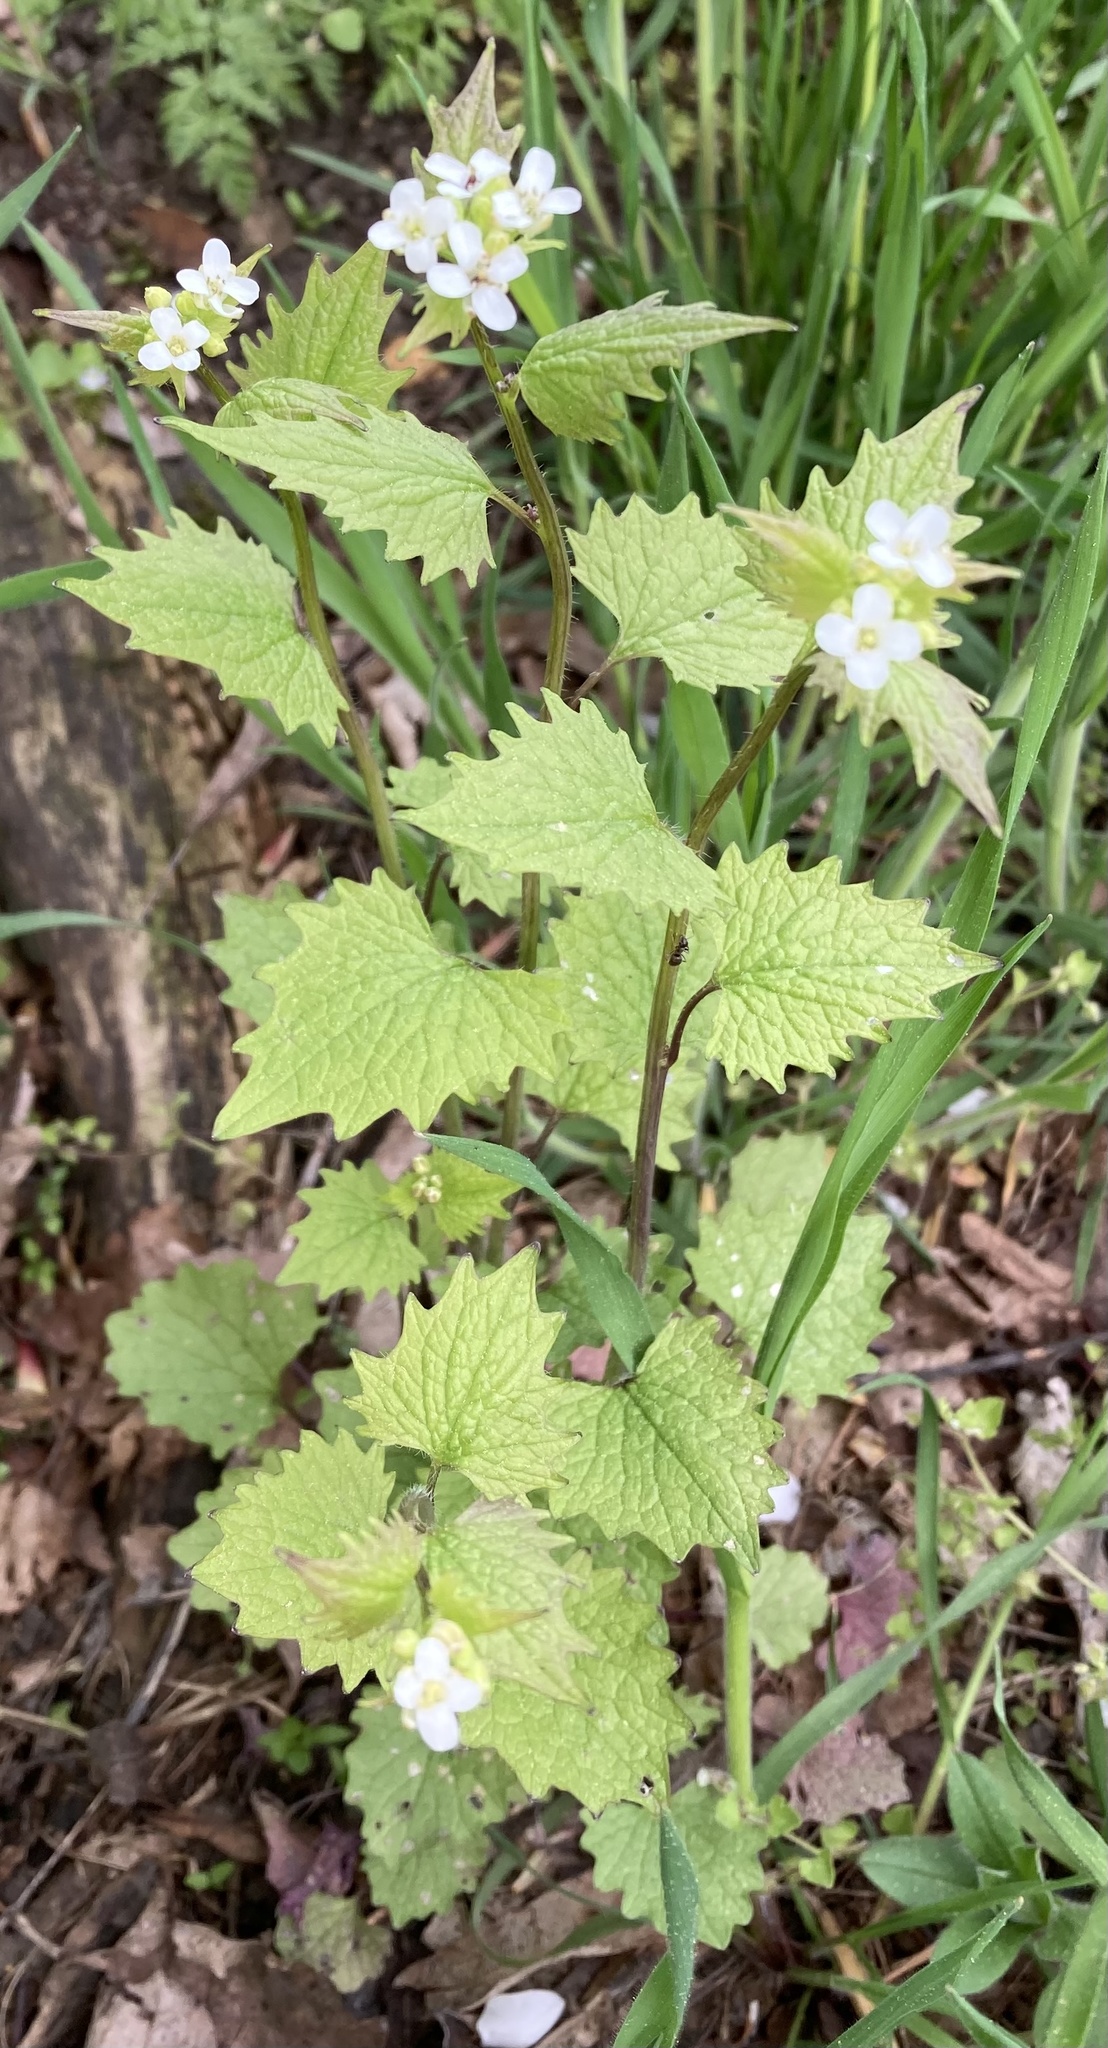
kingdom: Plantae
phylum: Tracheophyta
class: Magnoliopsida
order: Brassicales
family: Brassicaceae
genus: Alliaria
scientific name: Alliaria petiolata
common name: Garlic mustard
